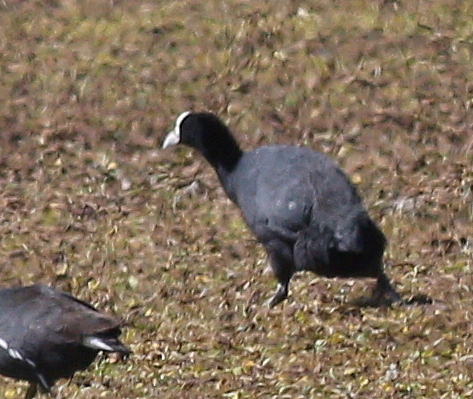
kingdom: Animalia
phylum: Chordata
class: Aves
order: Gruiformes
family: Rallidae
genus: Fulica
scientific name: Fulica ardesiaca
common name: Andean coot
